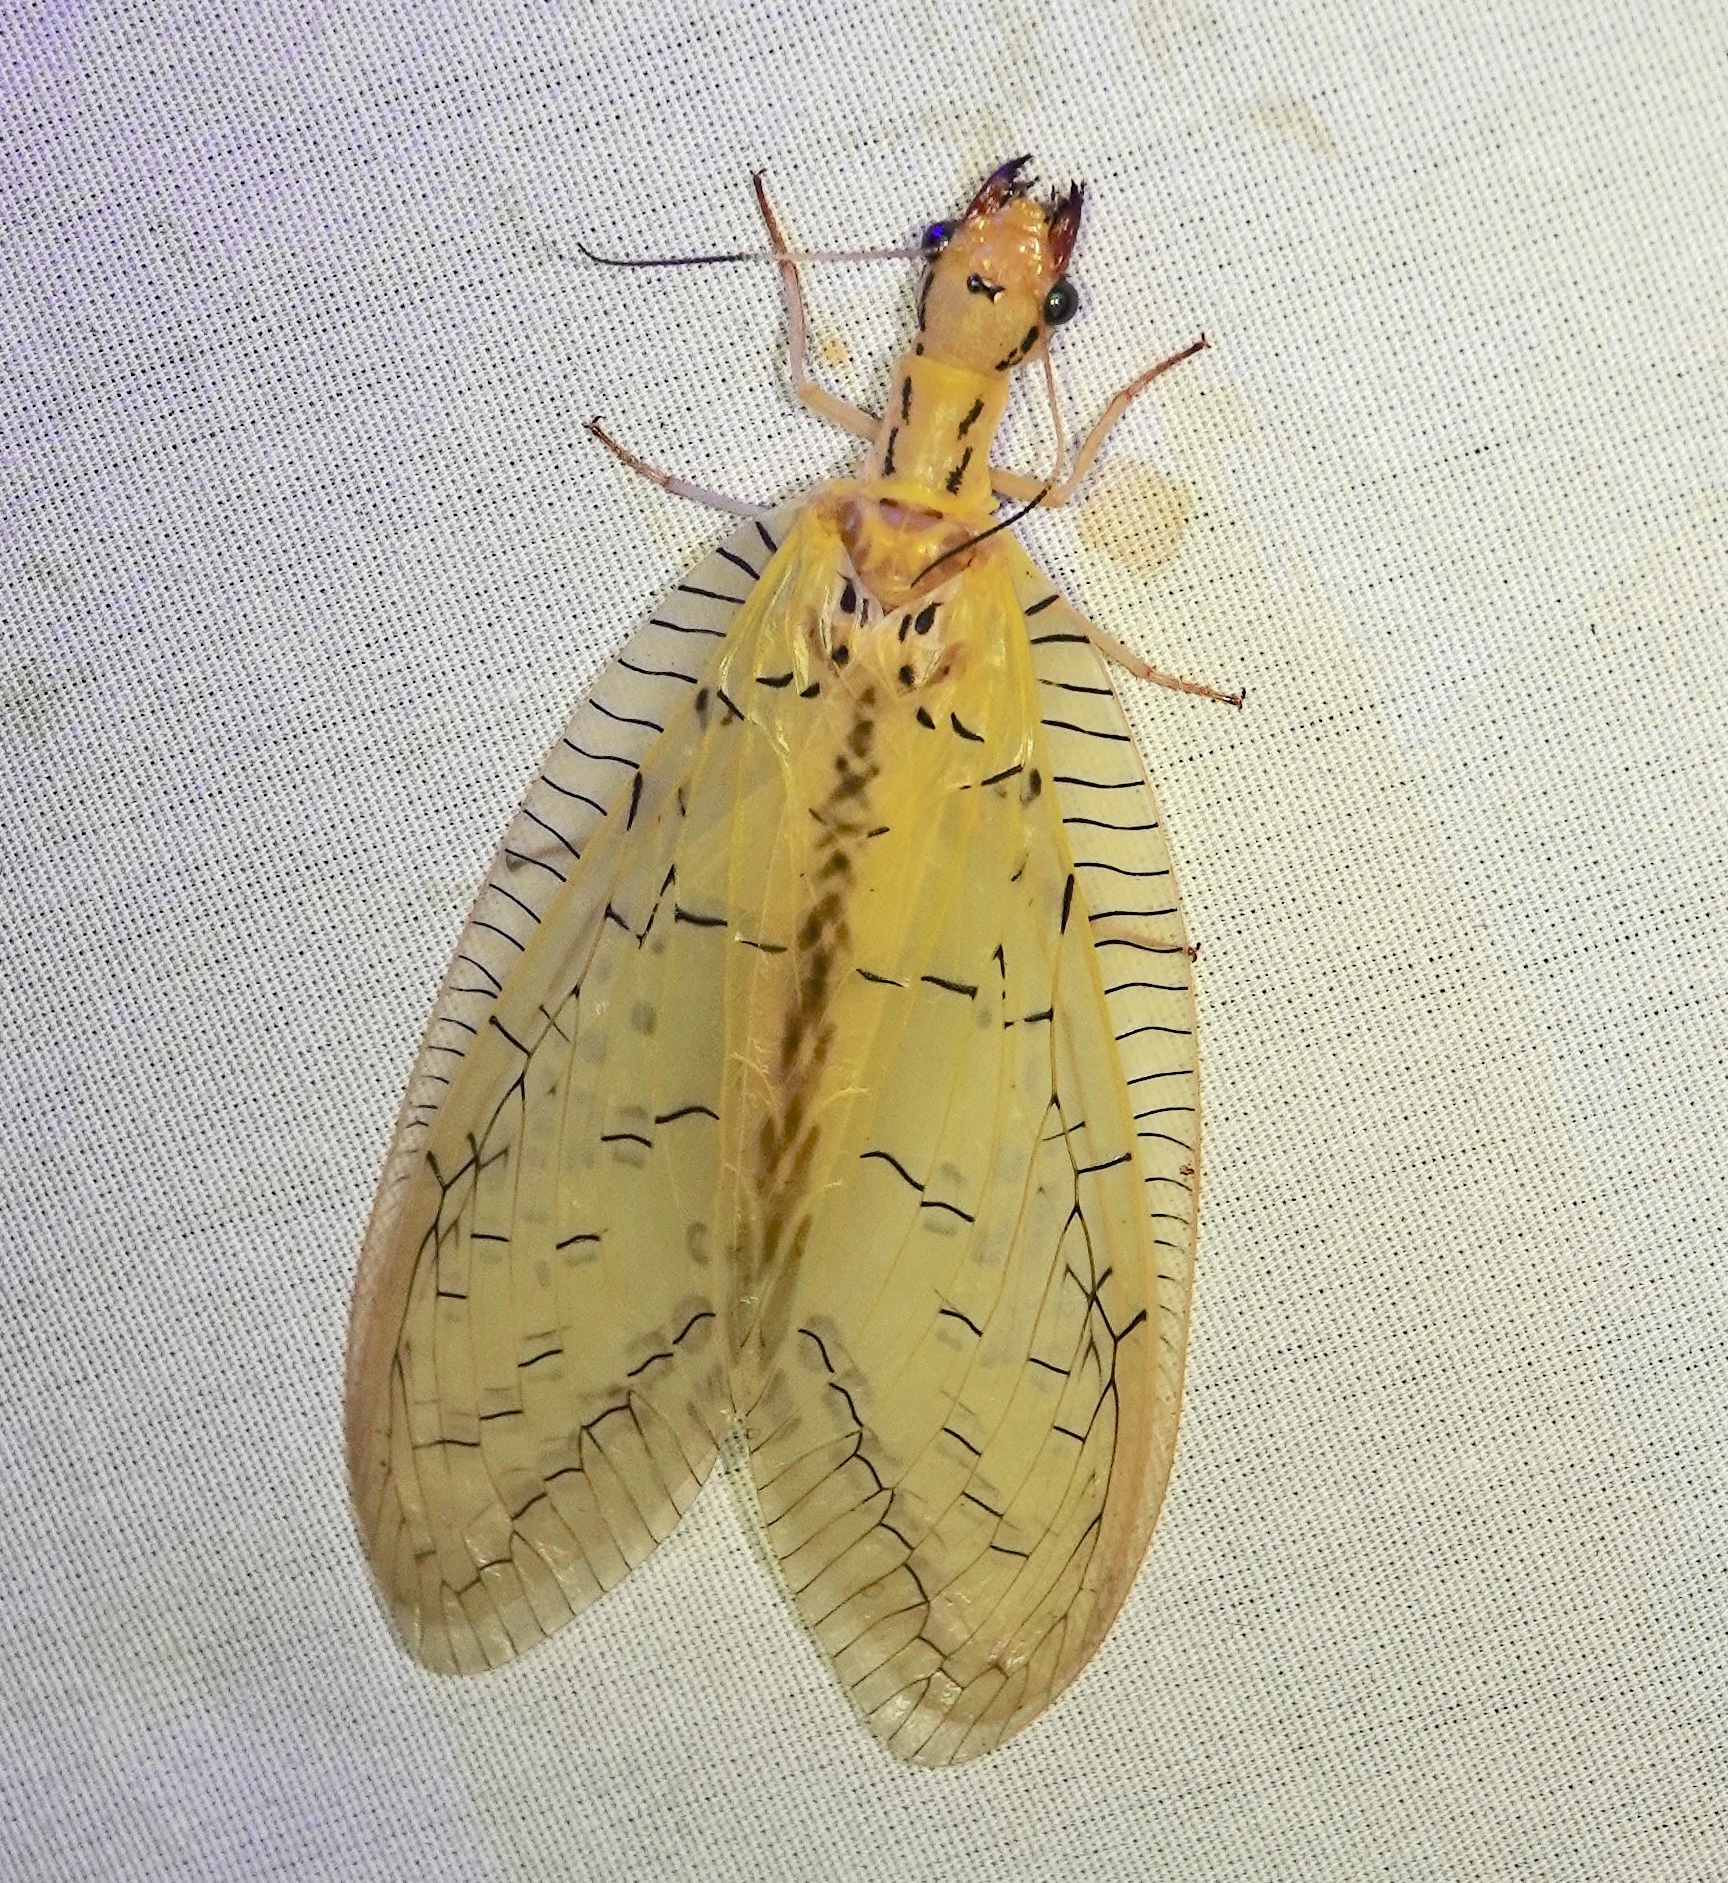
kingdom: Animalia
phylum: Arthropoda
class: Insecta
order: Megaloptera
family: Corydalidae
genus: Chloronia
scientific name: Chloronia yungas
